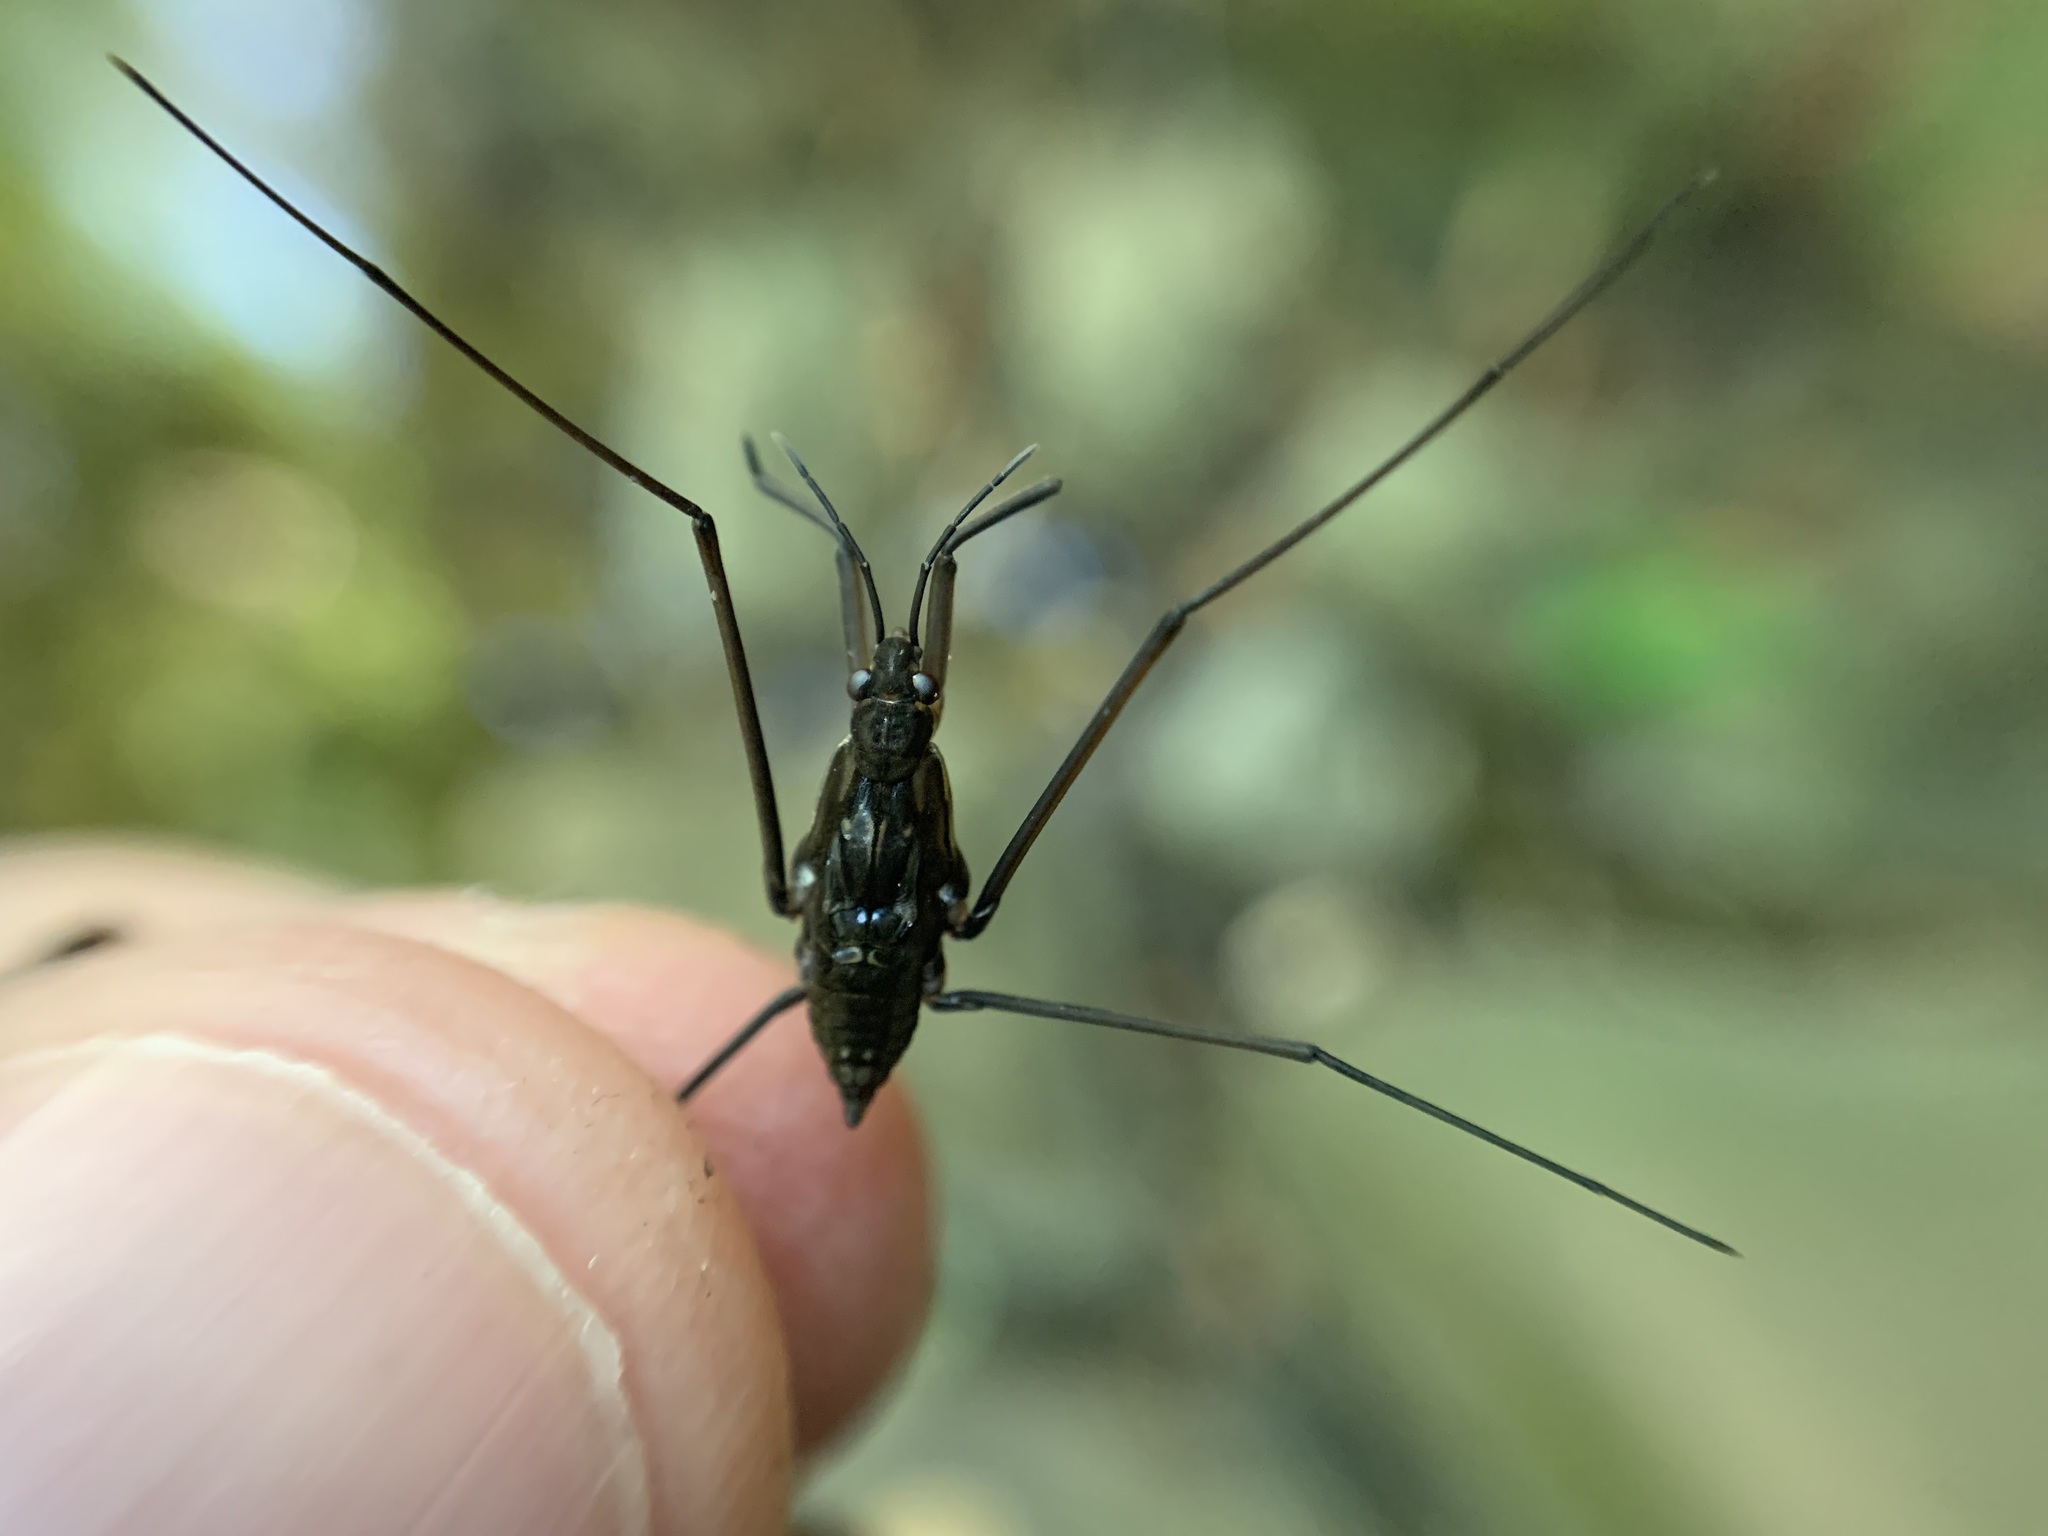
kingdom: Animalia
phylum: Arthropoda
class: Insecta
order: Hemiptera
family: Gerridae
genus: Aquarius
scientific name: Aquarius remigis
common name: Common water strider
